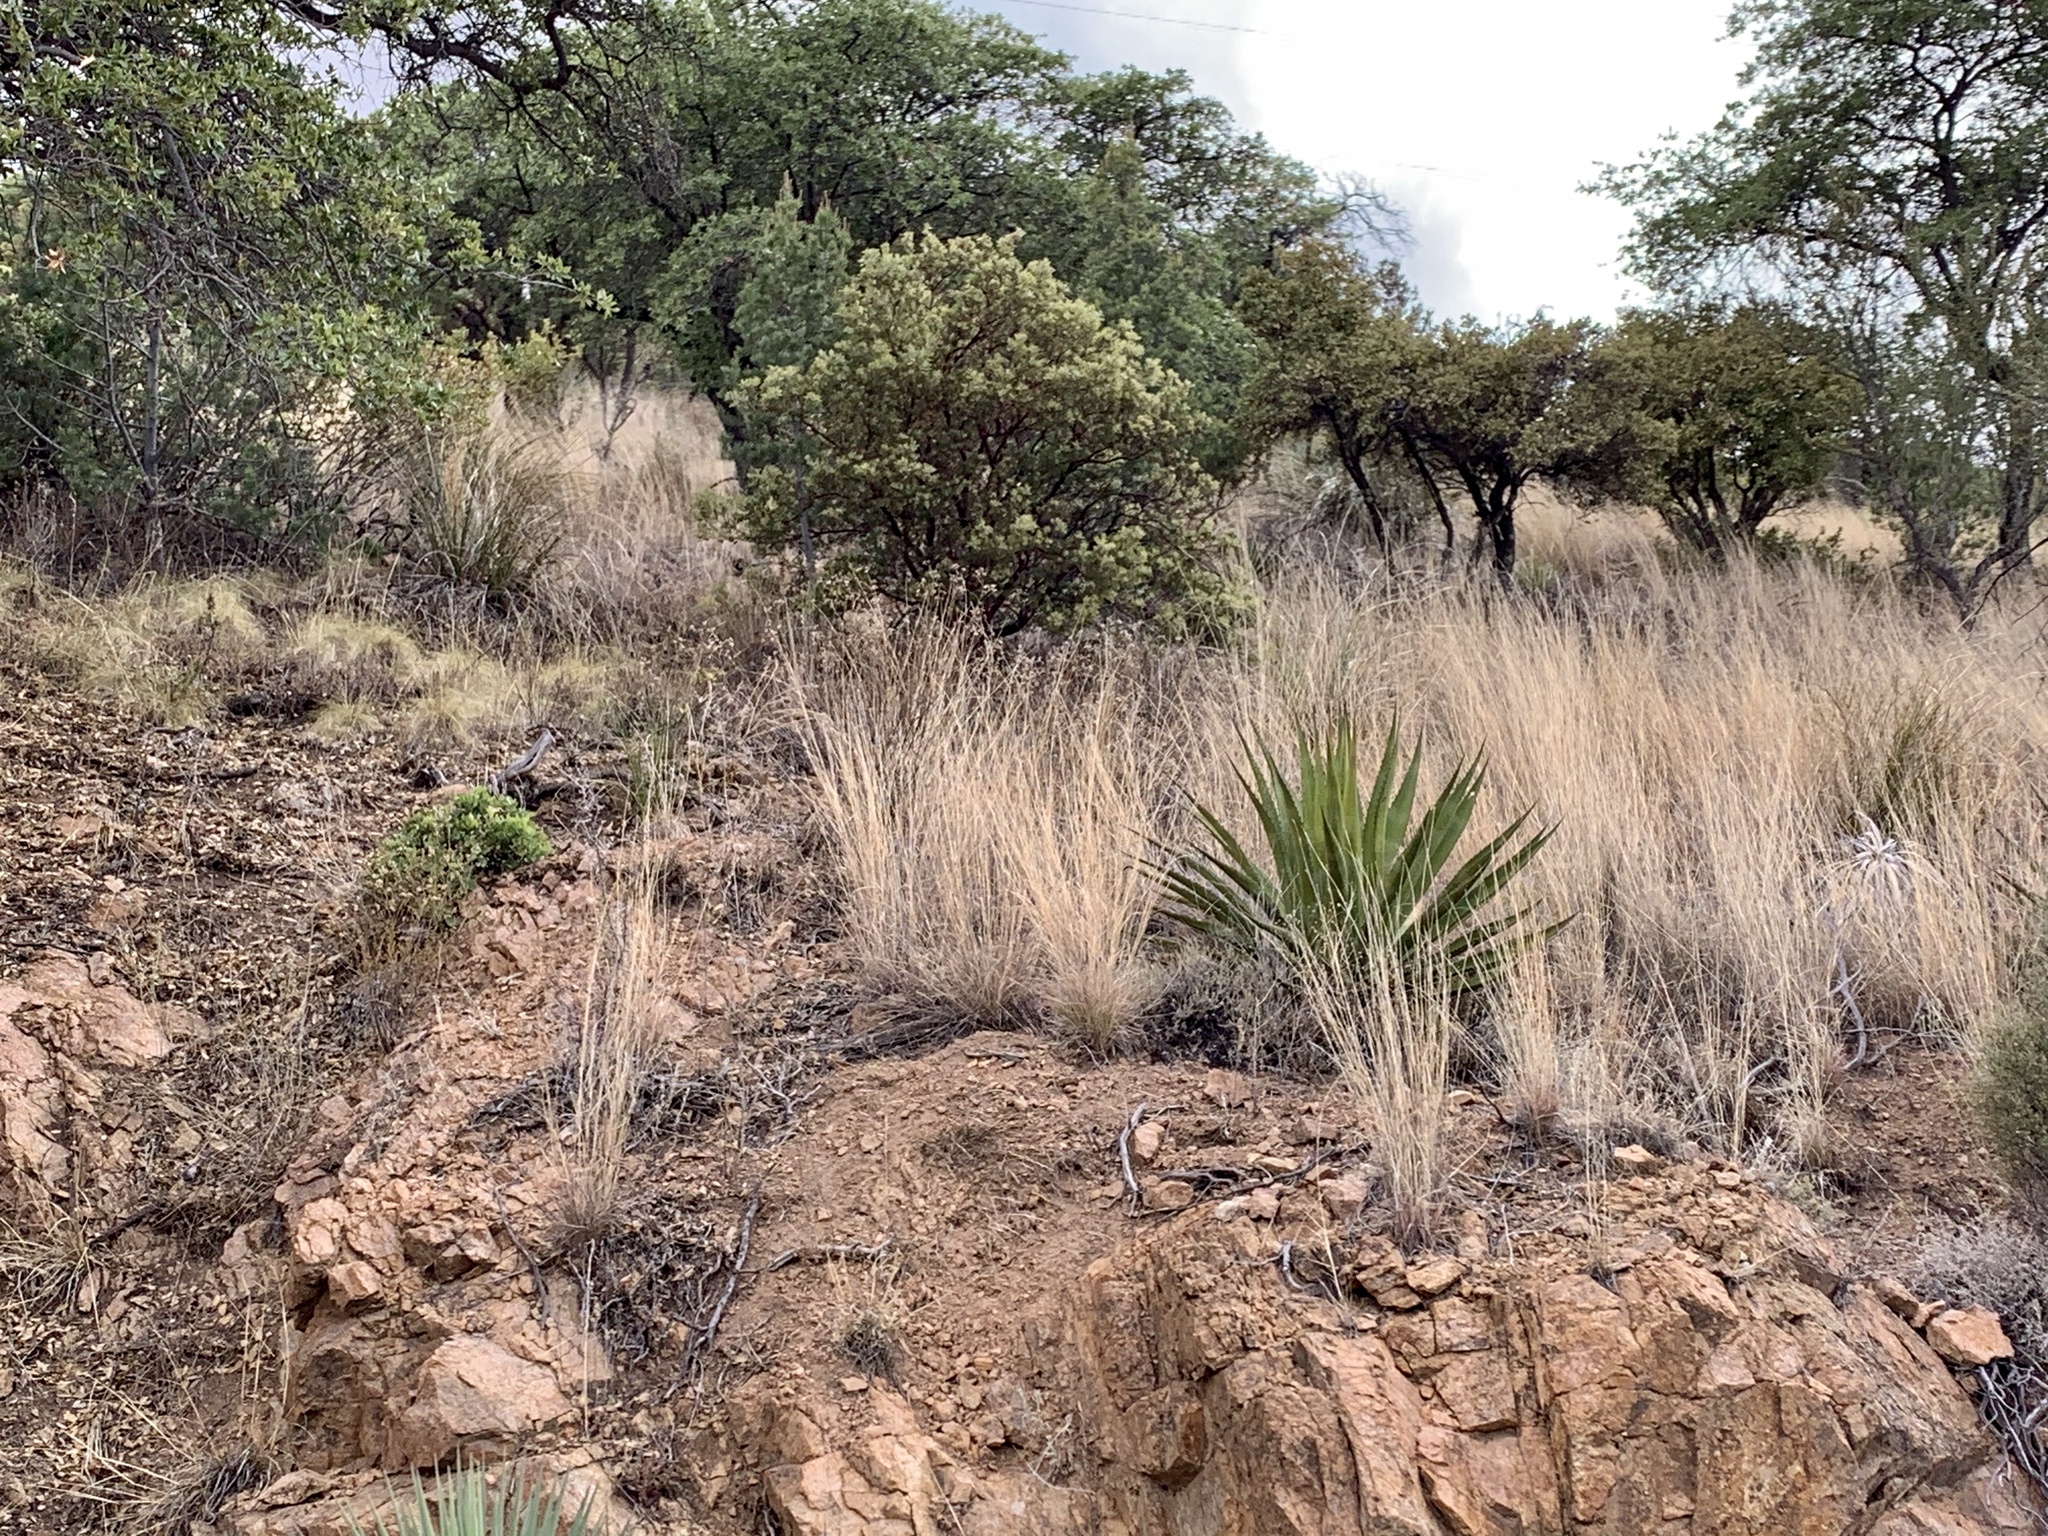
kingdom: Plantae
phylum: Tracheophyta
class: Liliopsida
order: Asparagales
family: Asparagaceae
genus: Agave
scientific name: Agave palmeri
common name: Palmer agave
